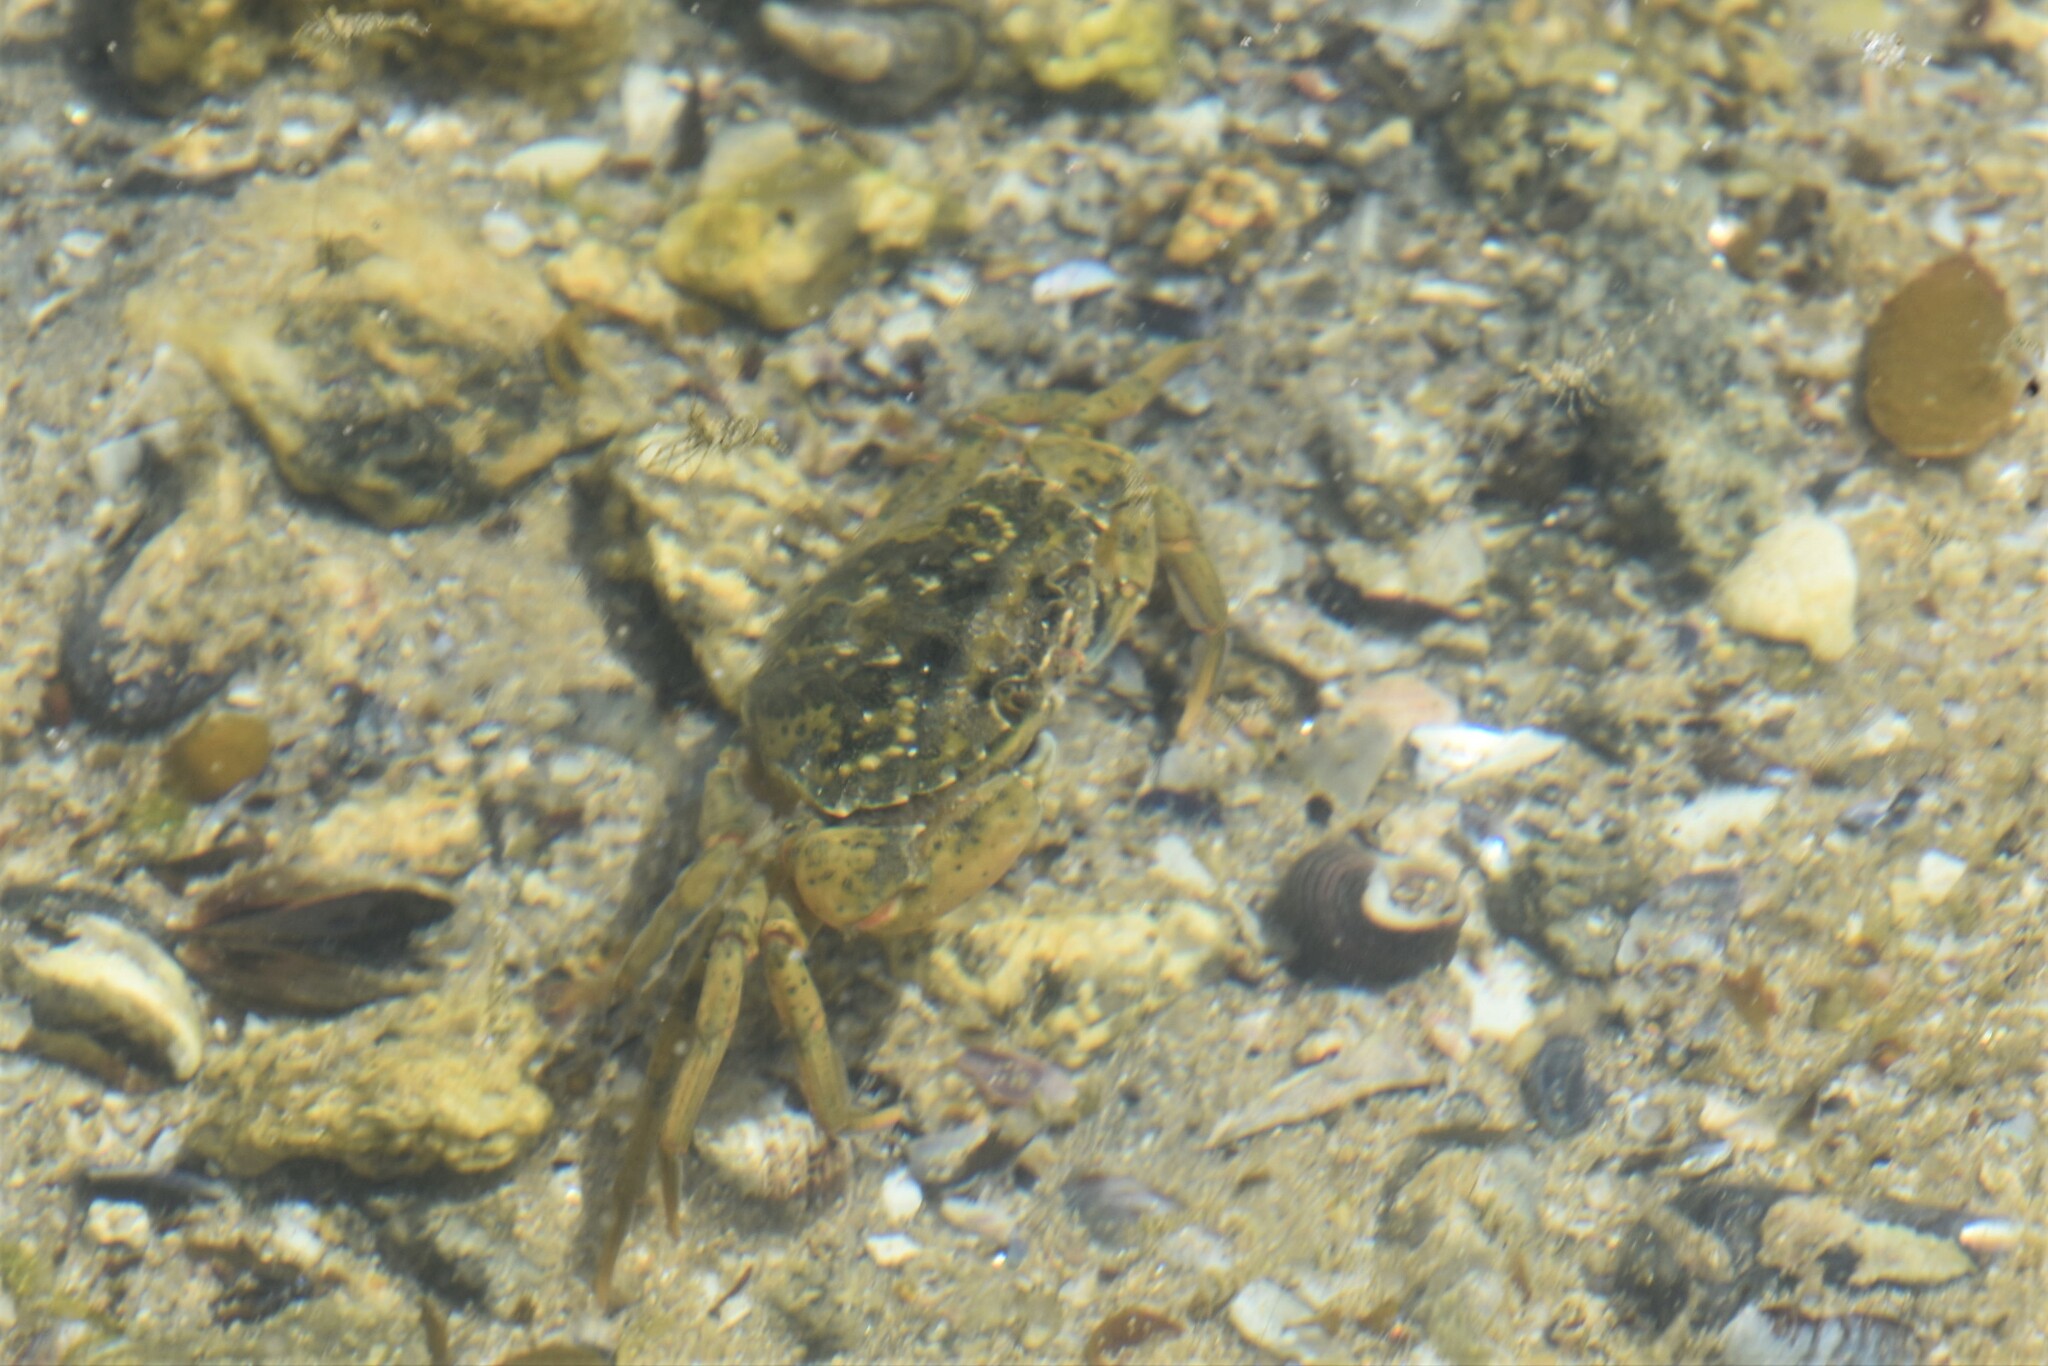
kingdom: Animalia
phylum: Arthropoda
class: Malacostraca
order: Decapoda
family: Carcinidae
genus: Carcinus
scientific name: Carcinus maenas
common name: European green crab
